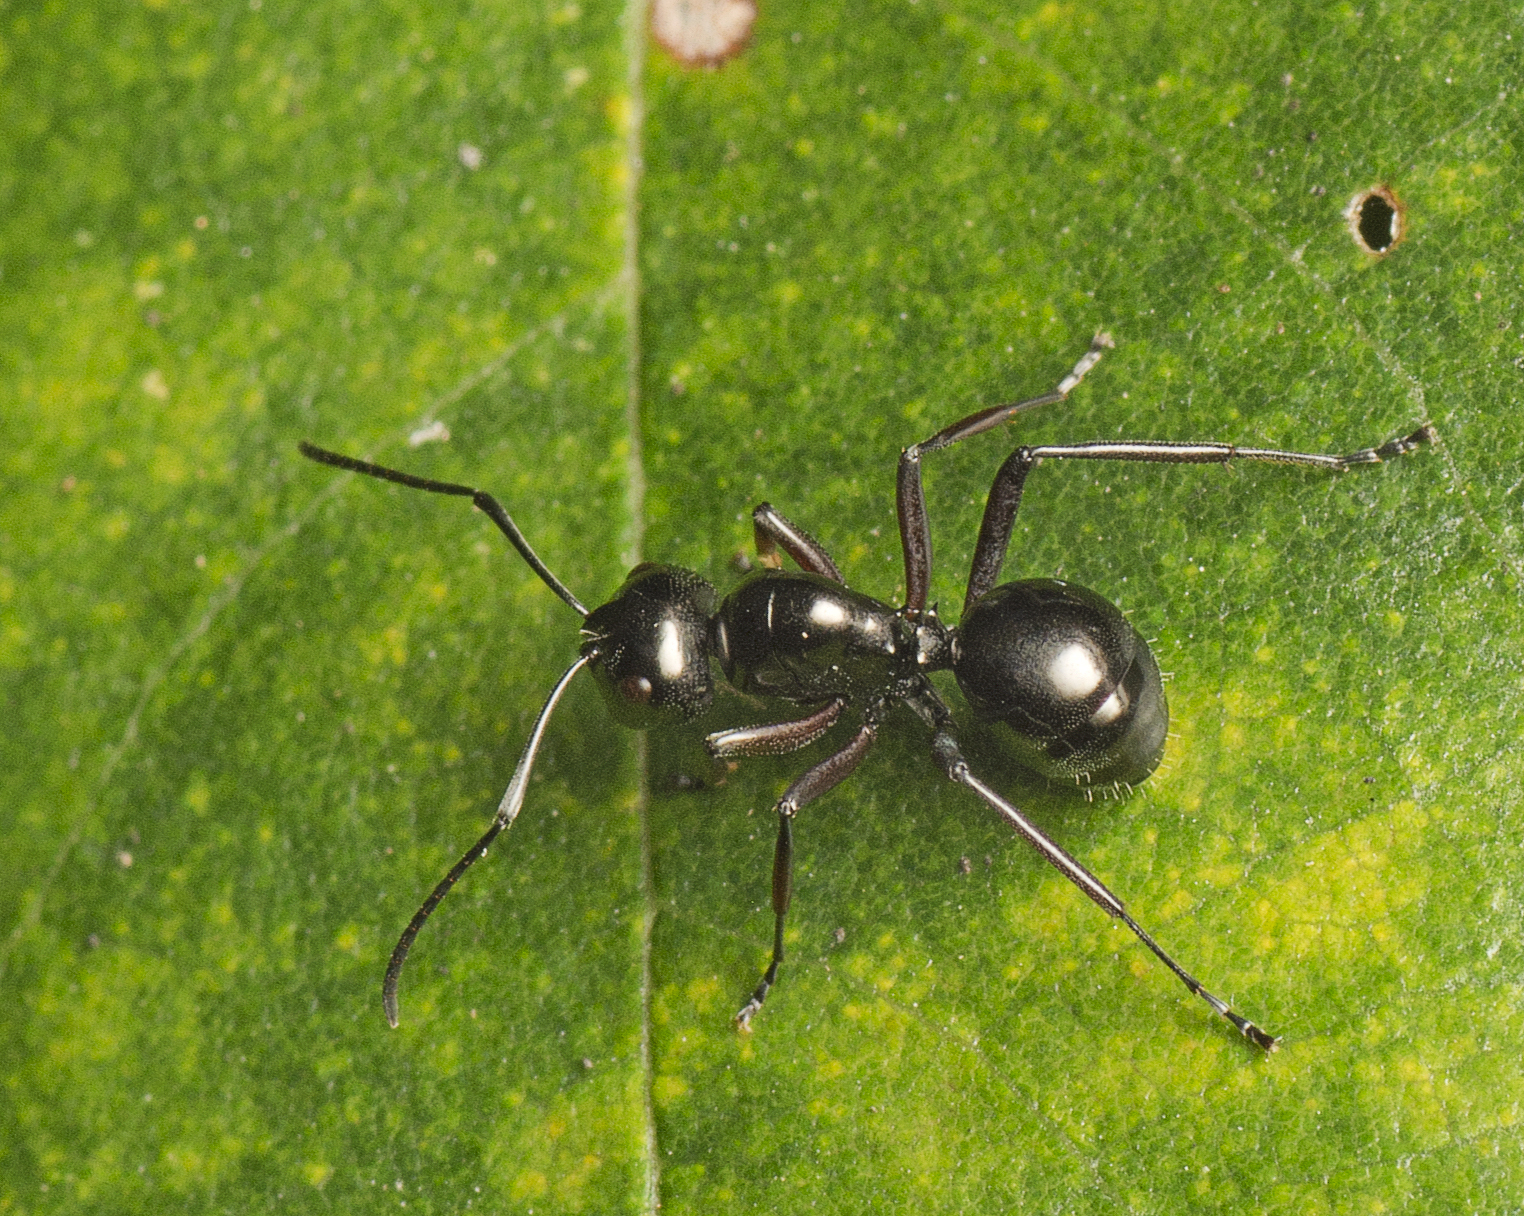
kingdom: Animalia
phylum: Arthropoda
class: Insecta
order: Hymenoptera
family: Formicidae
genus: Polyrhachis
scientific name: Polyrhachis australis
